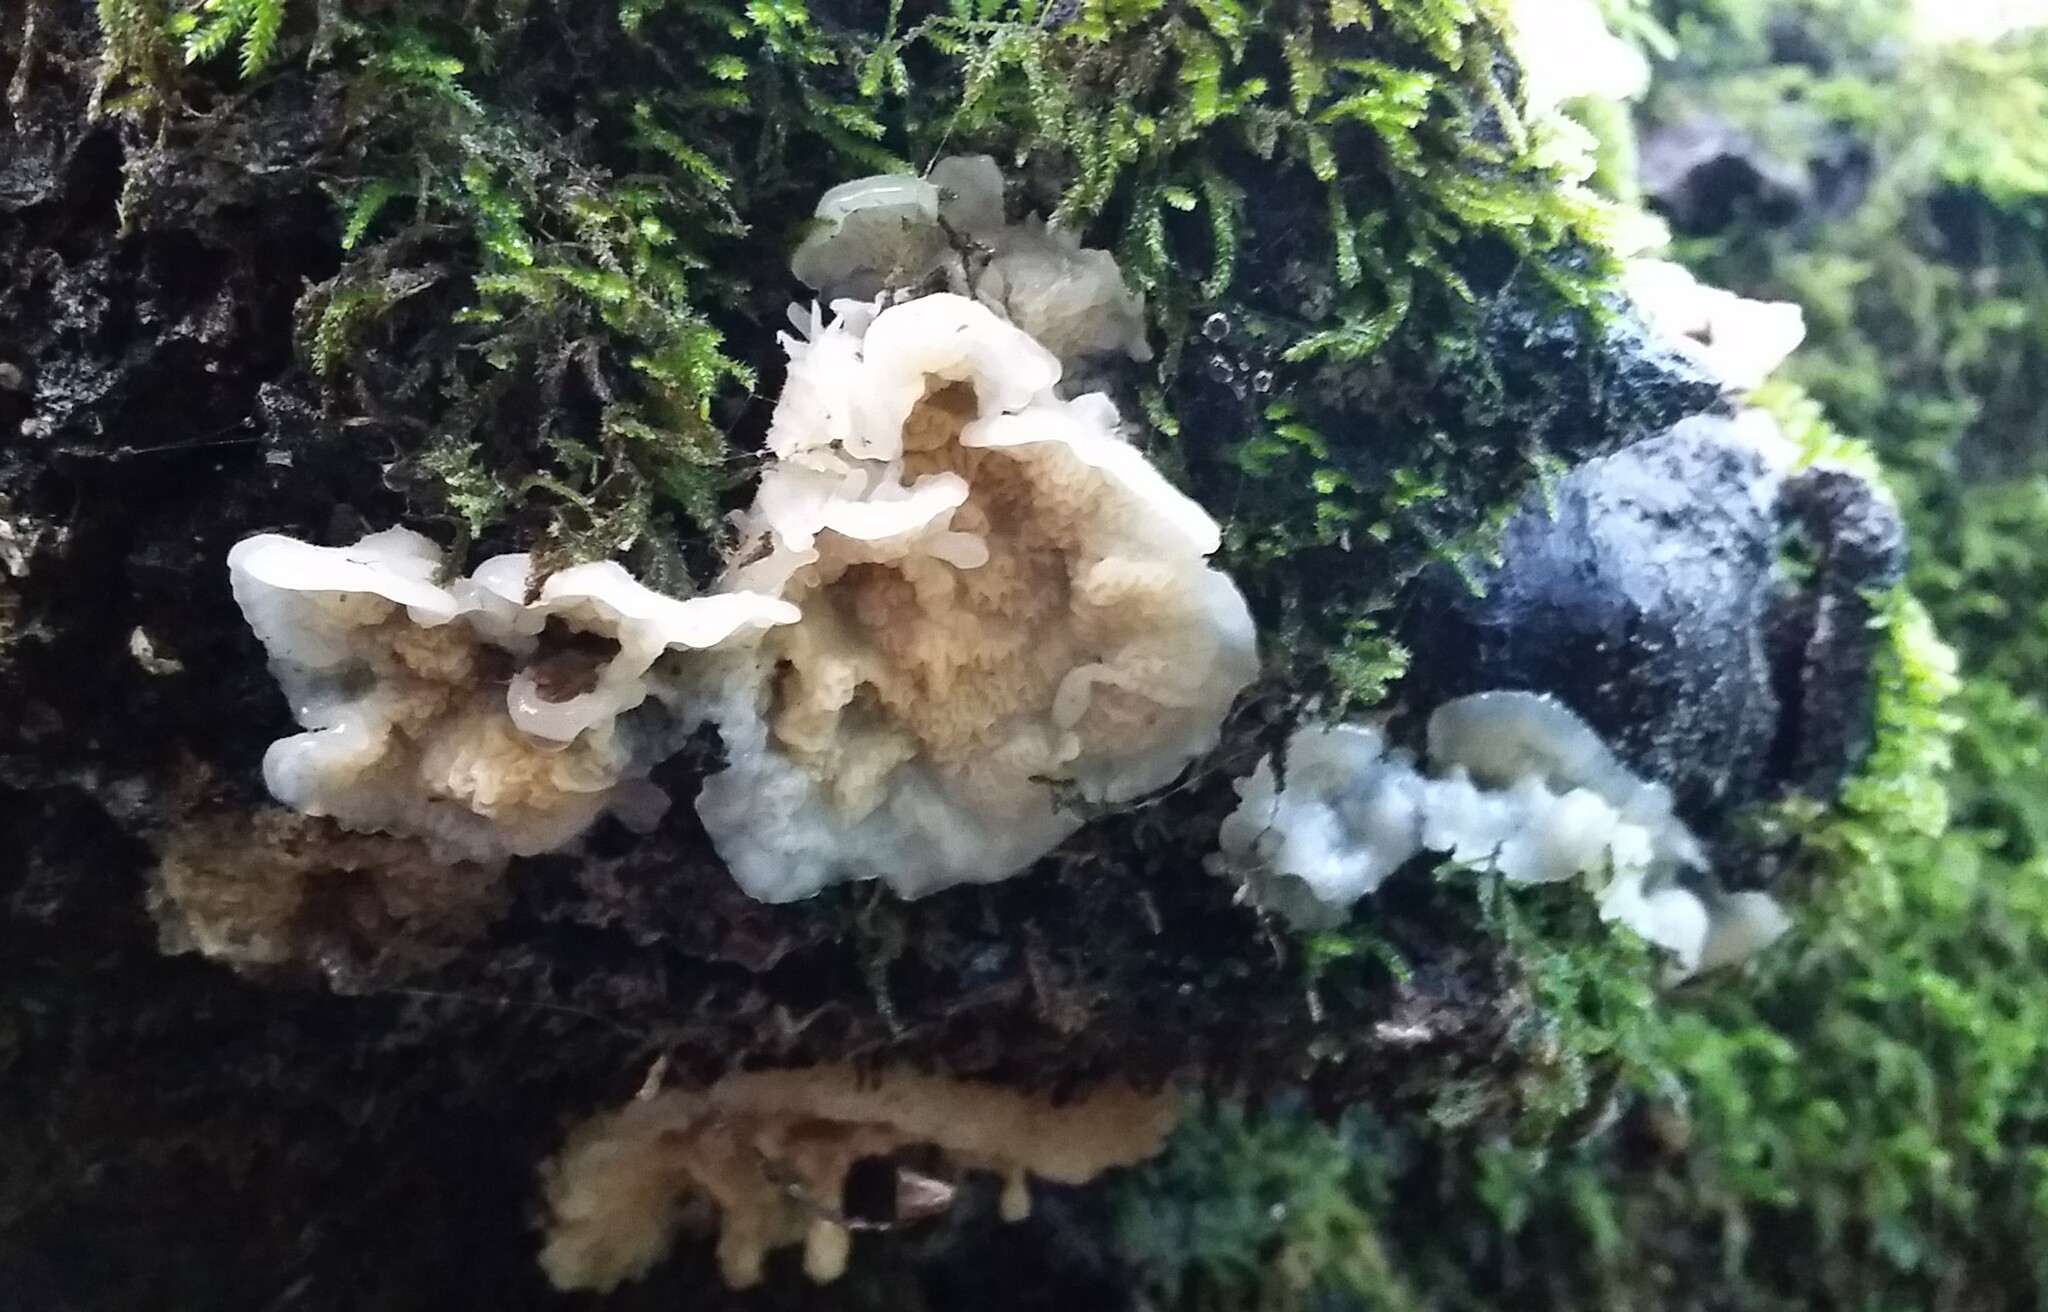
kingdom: Fungi
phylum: Basidiomycota
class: Agaricomycetes
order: Polyporales
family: Meruliaceae
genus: Phlebia
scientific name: Phlebia tremellosa
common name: Jelly rot
